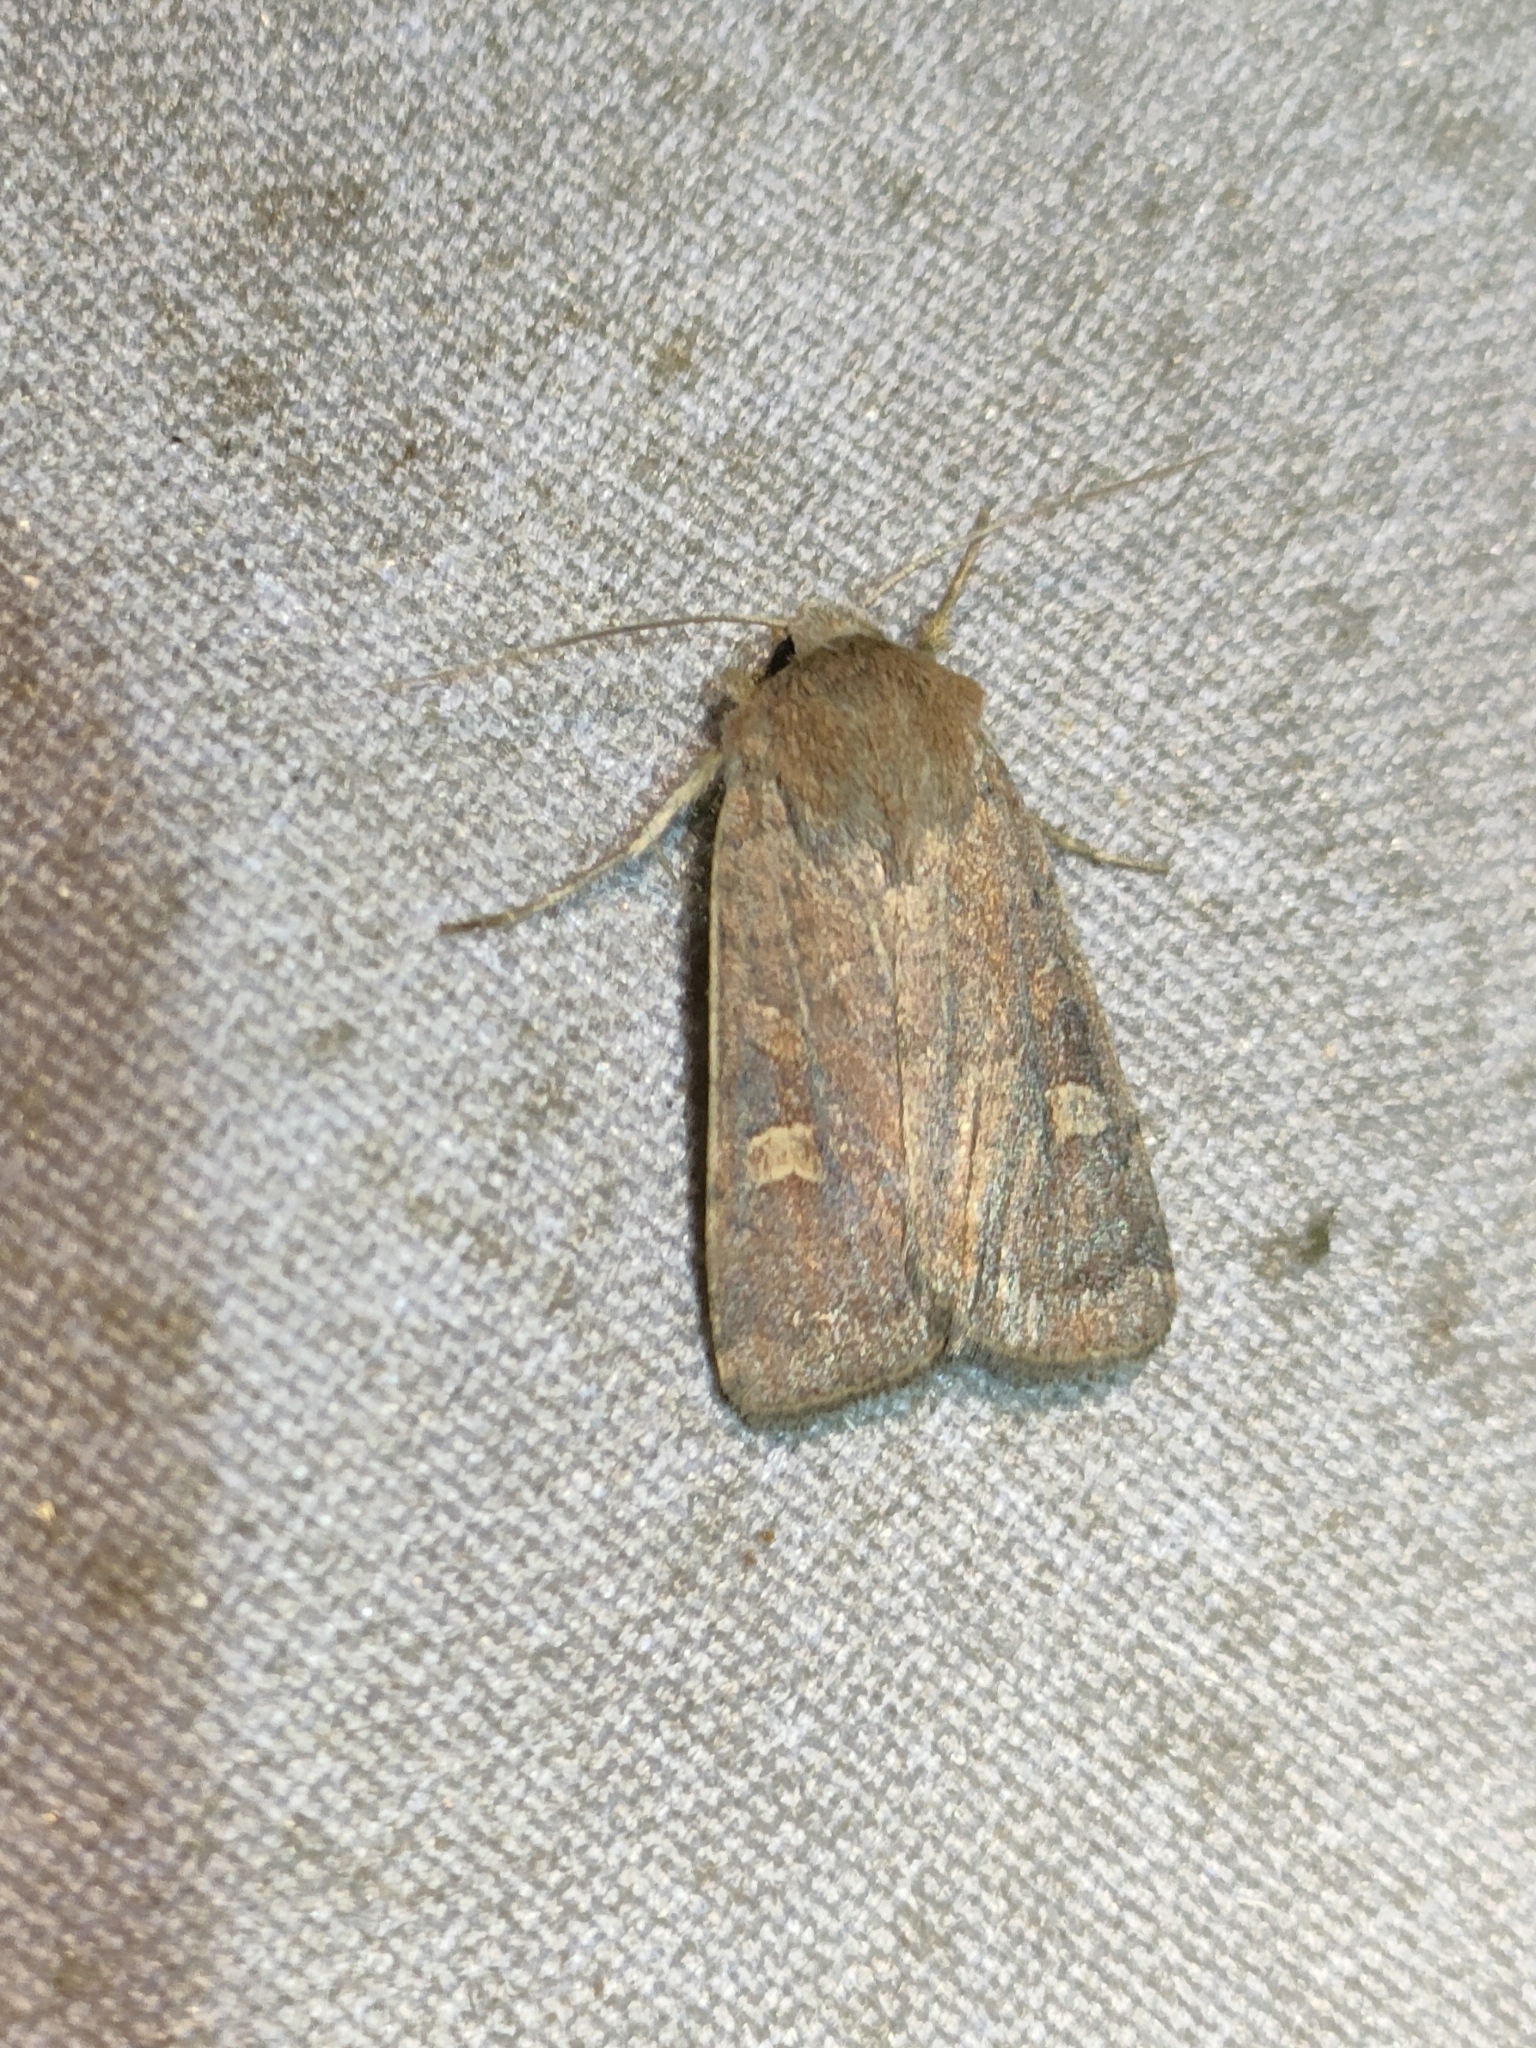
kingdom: Animalia
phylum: Arthropoda
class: Insecta
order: Lepidoptera
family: Noctuidae
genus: Xestia
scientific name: Xestia xanthographa
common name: Square-spot rustic
